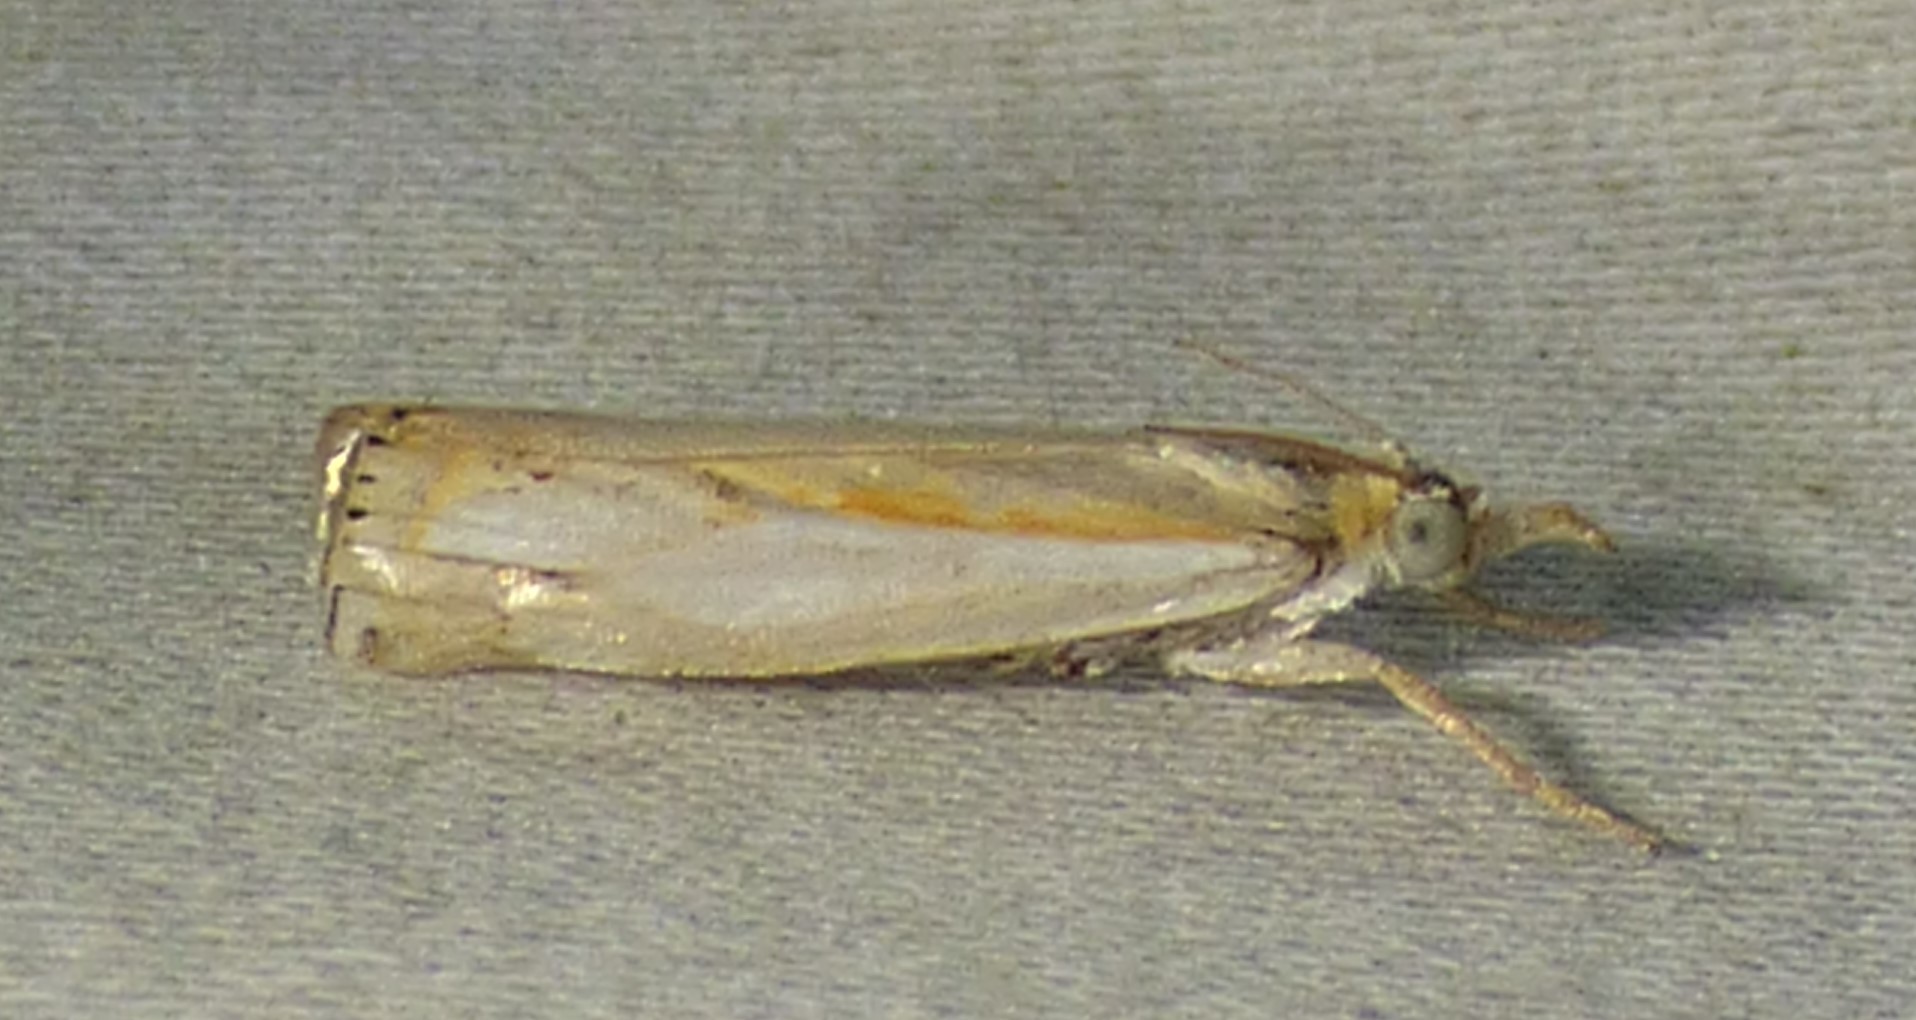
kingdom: Animalia
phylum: Arthropoda
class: Insecta
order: Lepidoptera
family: Crambidae
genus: Crambus
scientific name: Crambus agitatellus
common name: Double-banded grass-veneer
